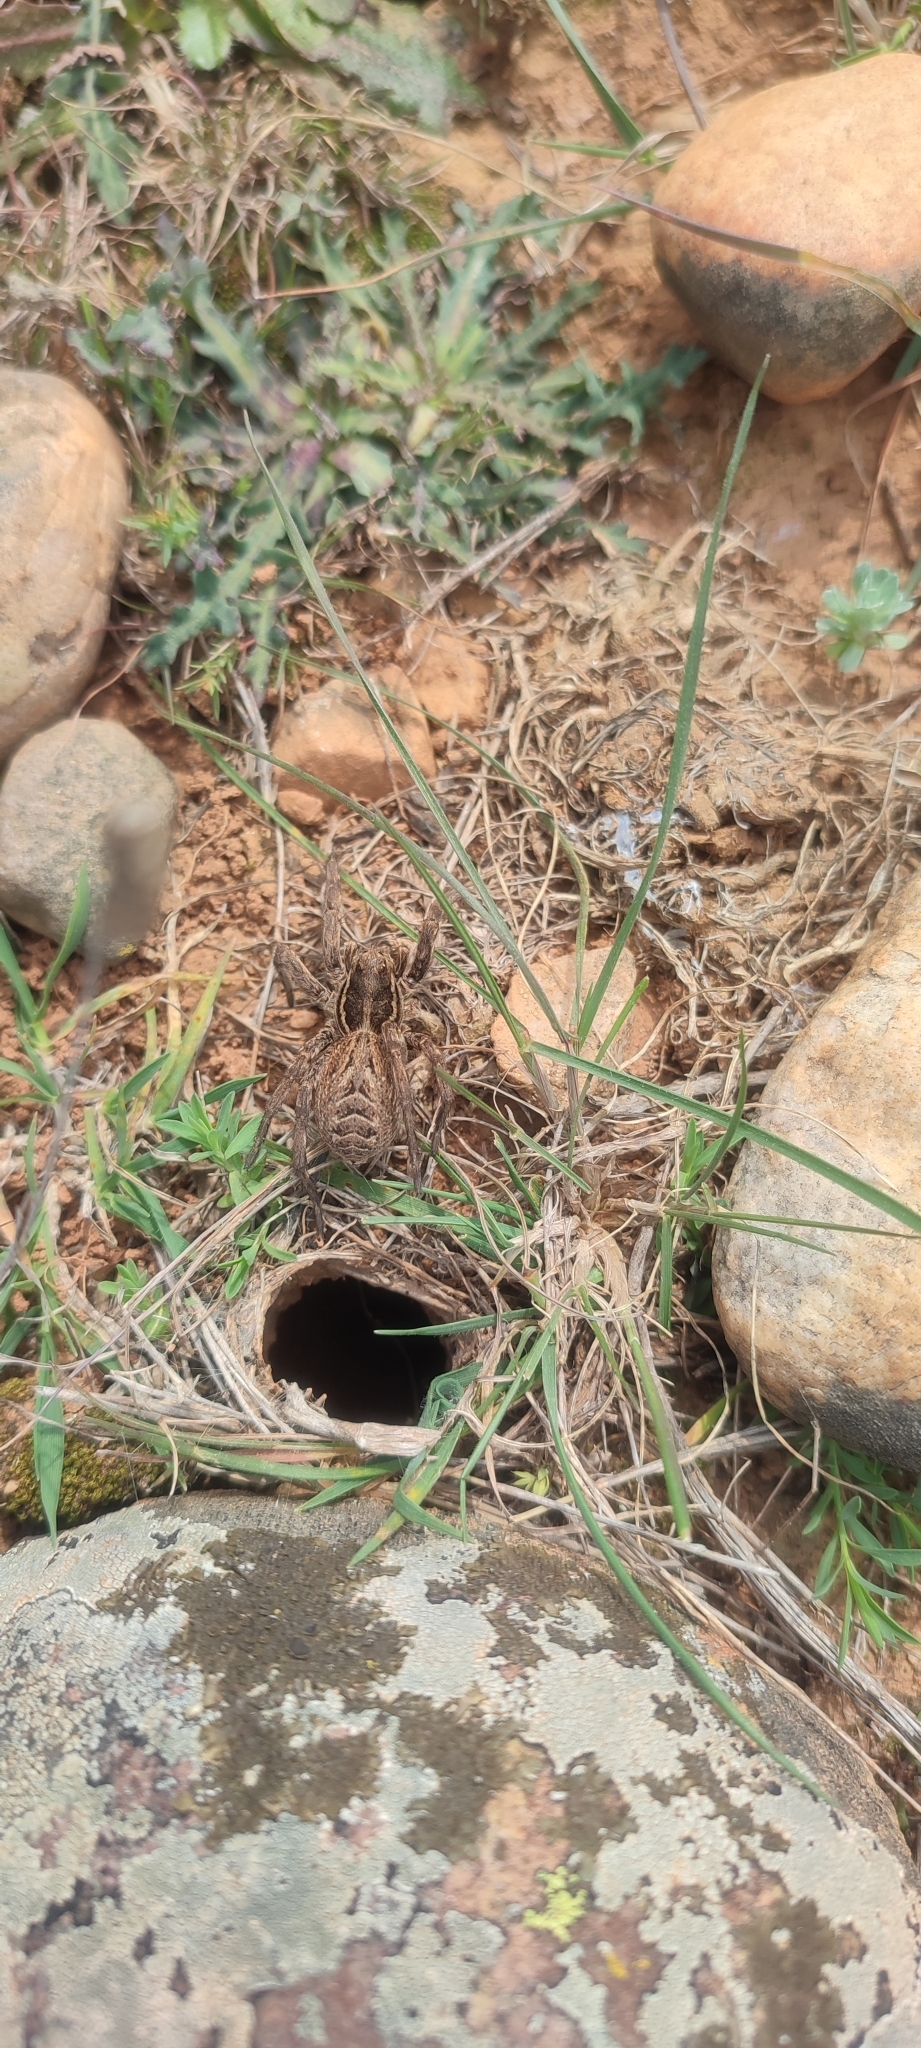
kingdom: Animalia
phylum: Arthropoda
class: Arachnida
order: Araneae
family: Lycosidae
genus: Lycosa
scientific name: Lycosa tarantula
